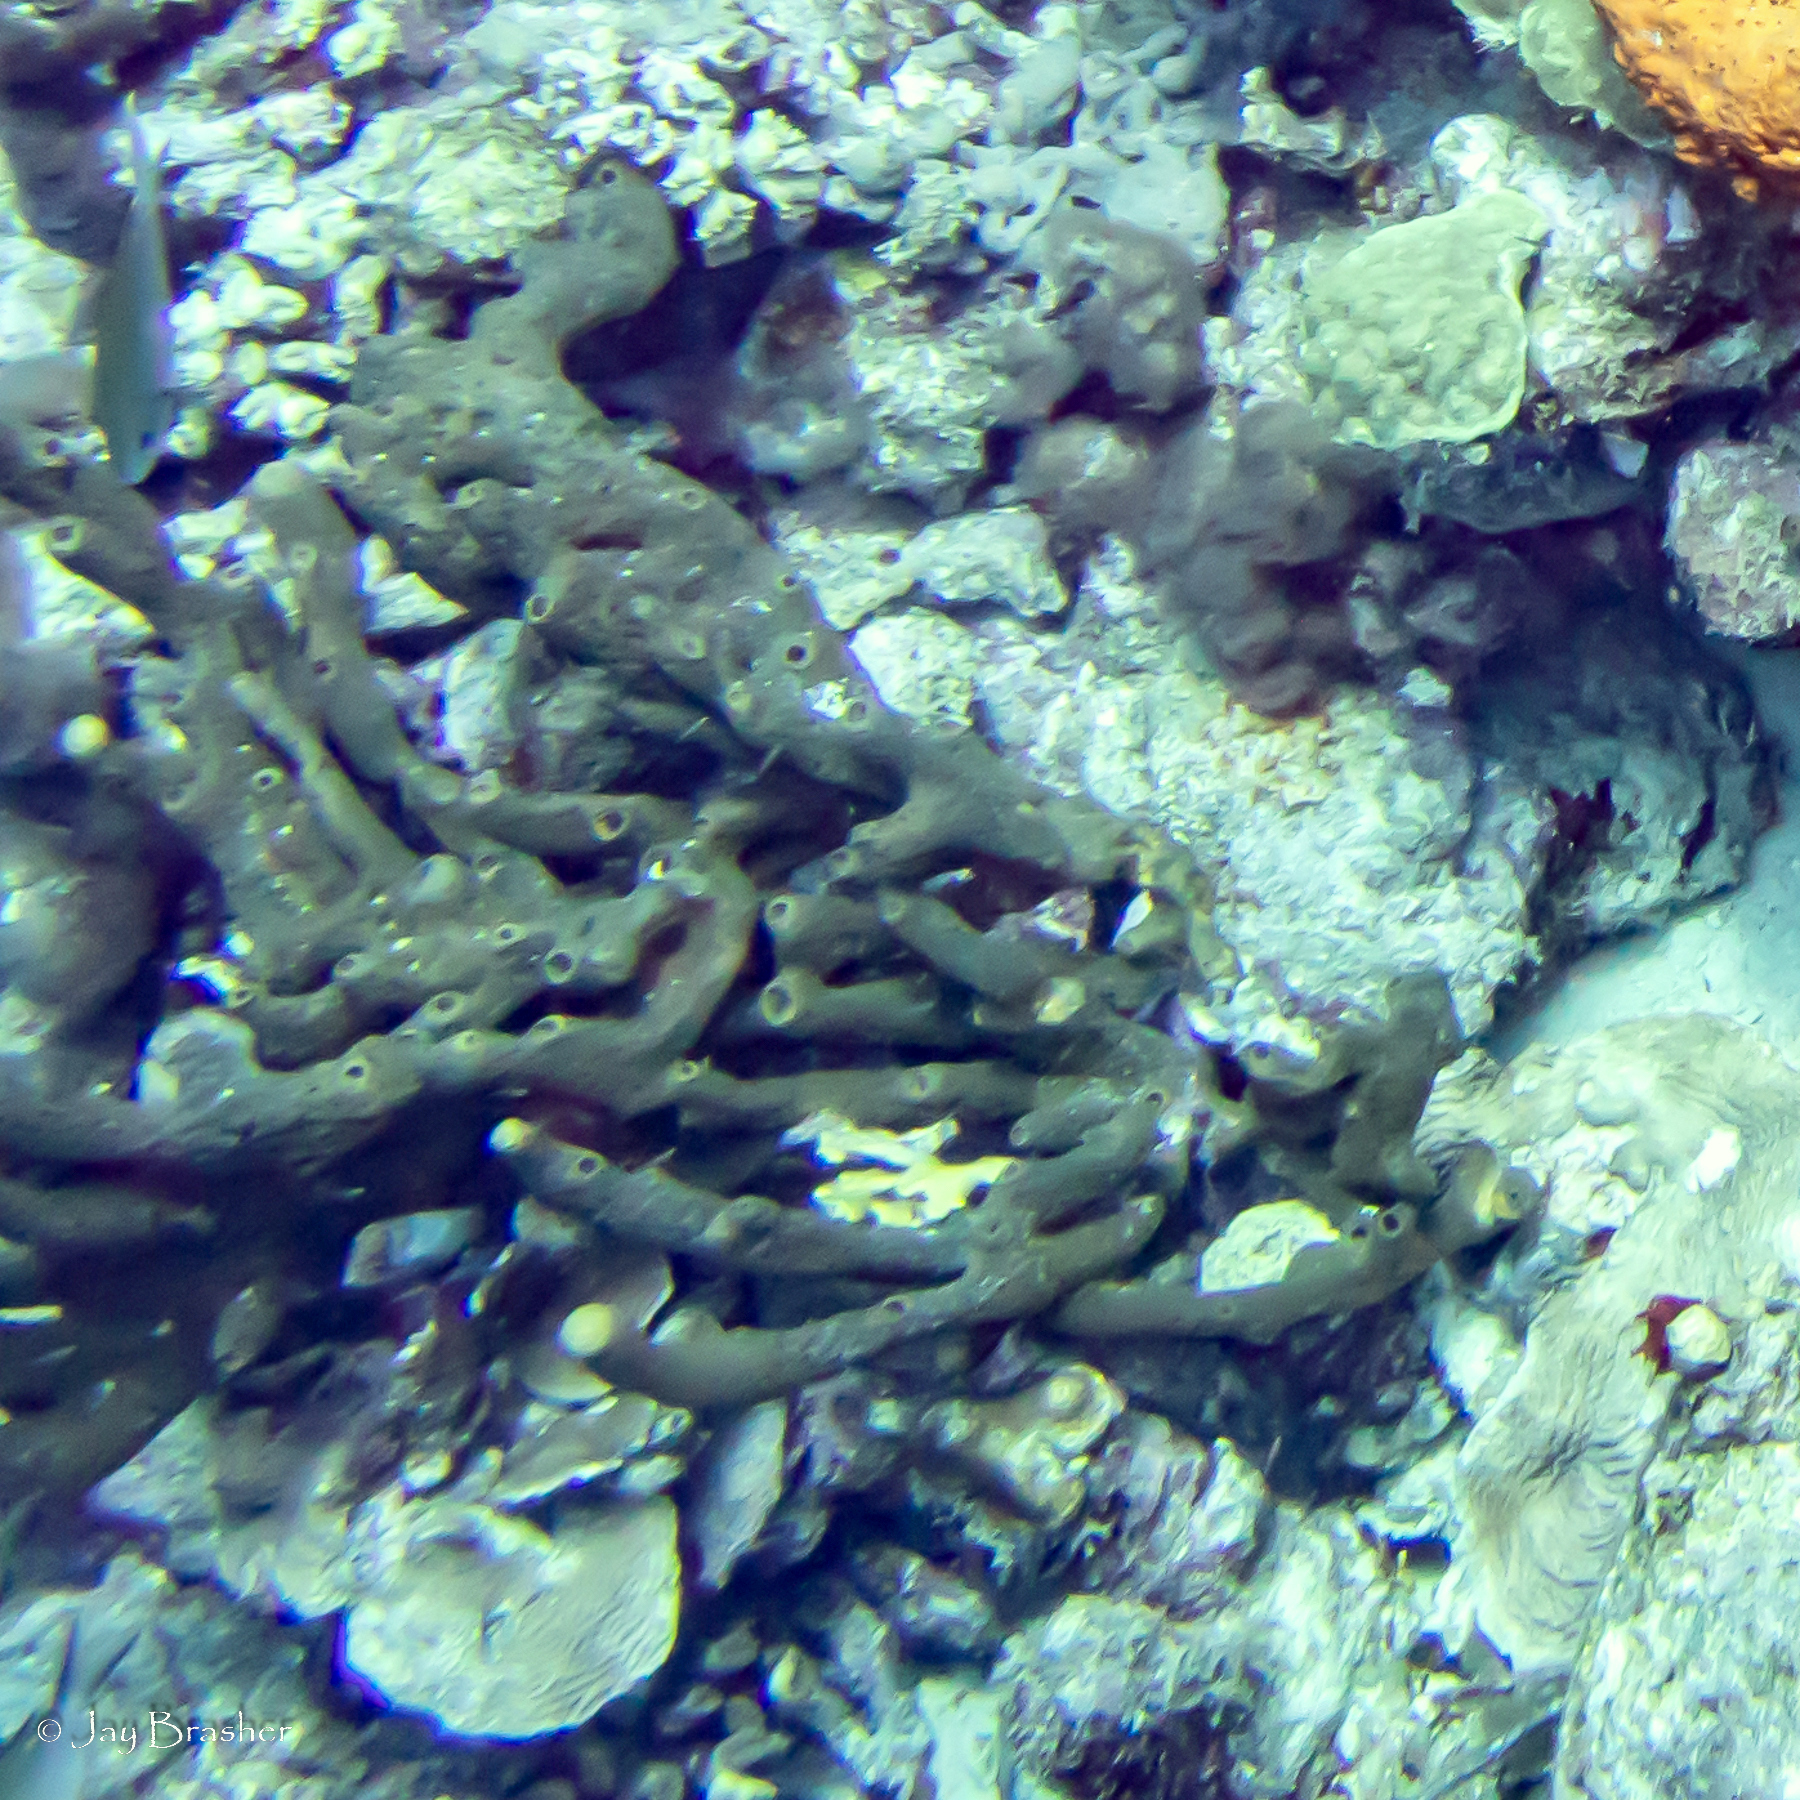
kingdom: Animalia
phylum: Porifera
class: Demospongiae
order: Agelasida
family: Agelasidae
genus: Agelas
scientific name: Agelas conifera
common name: Brown tube sponge
